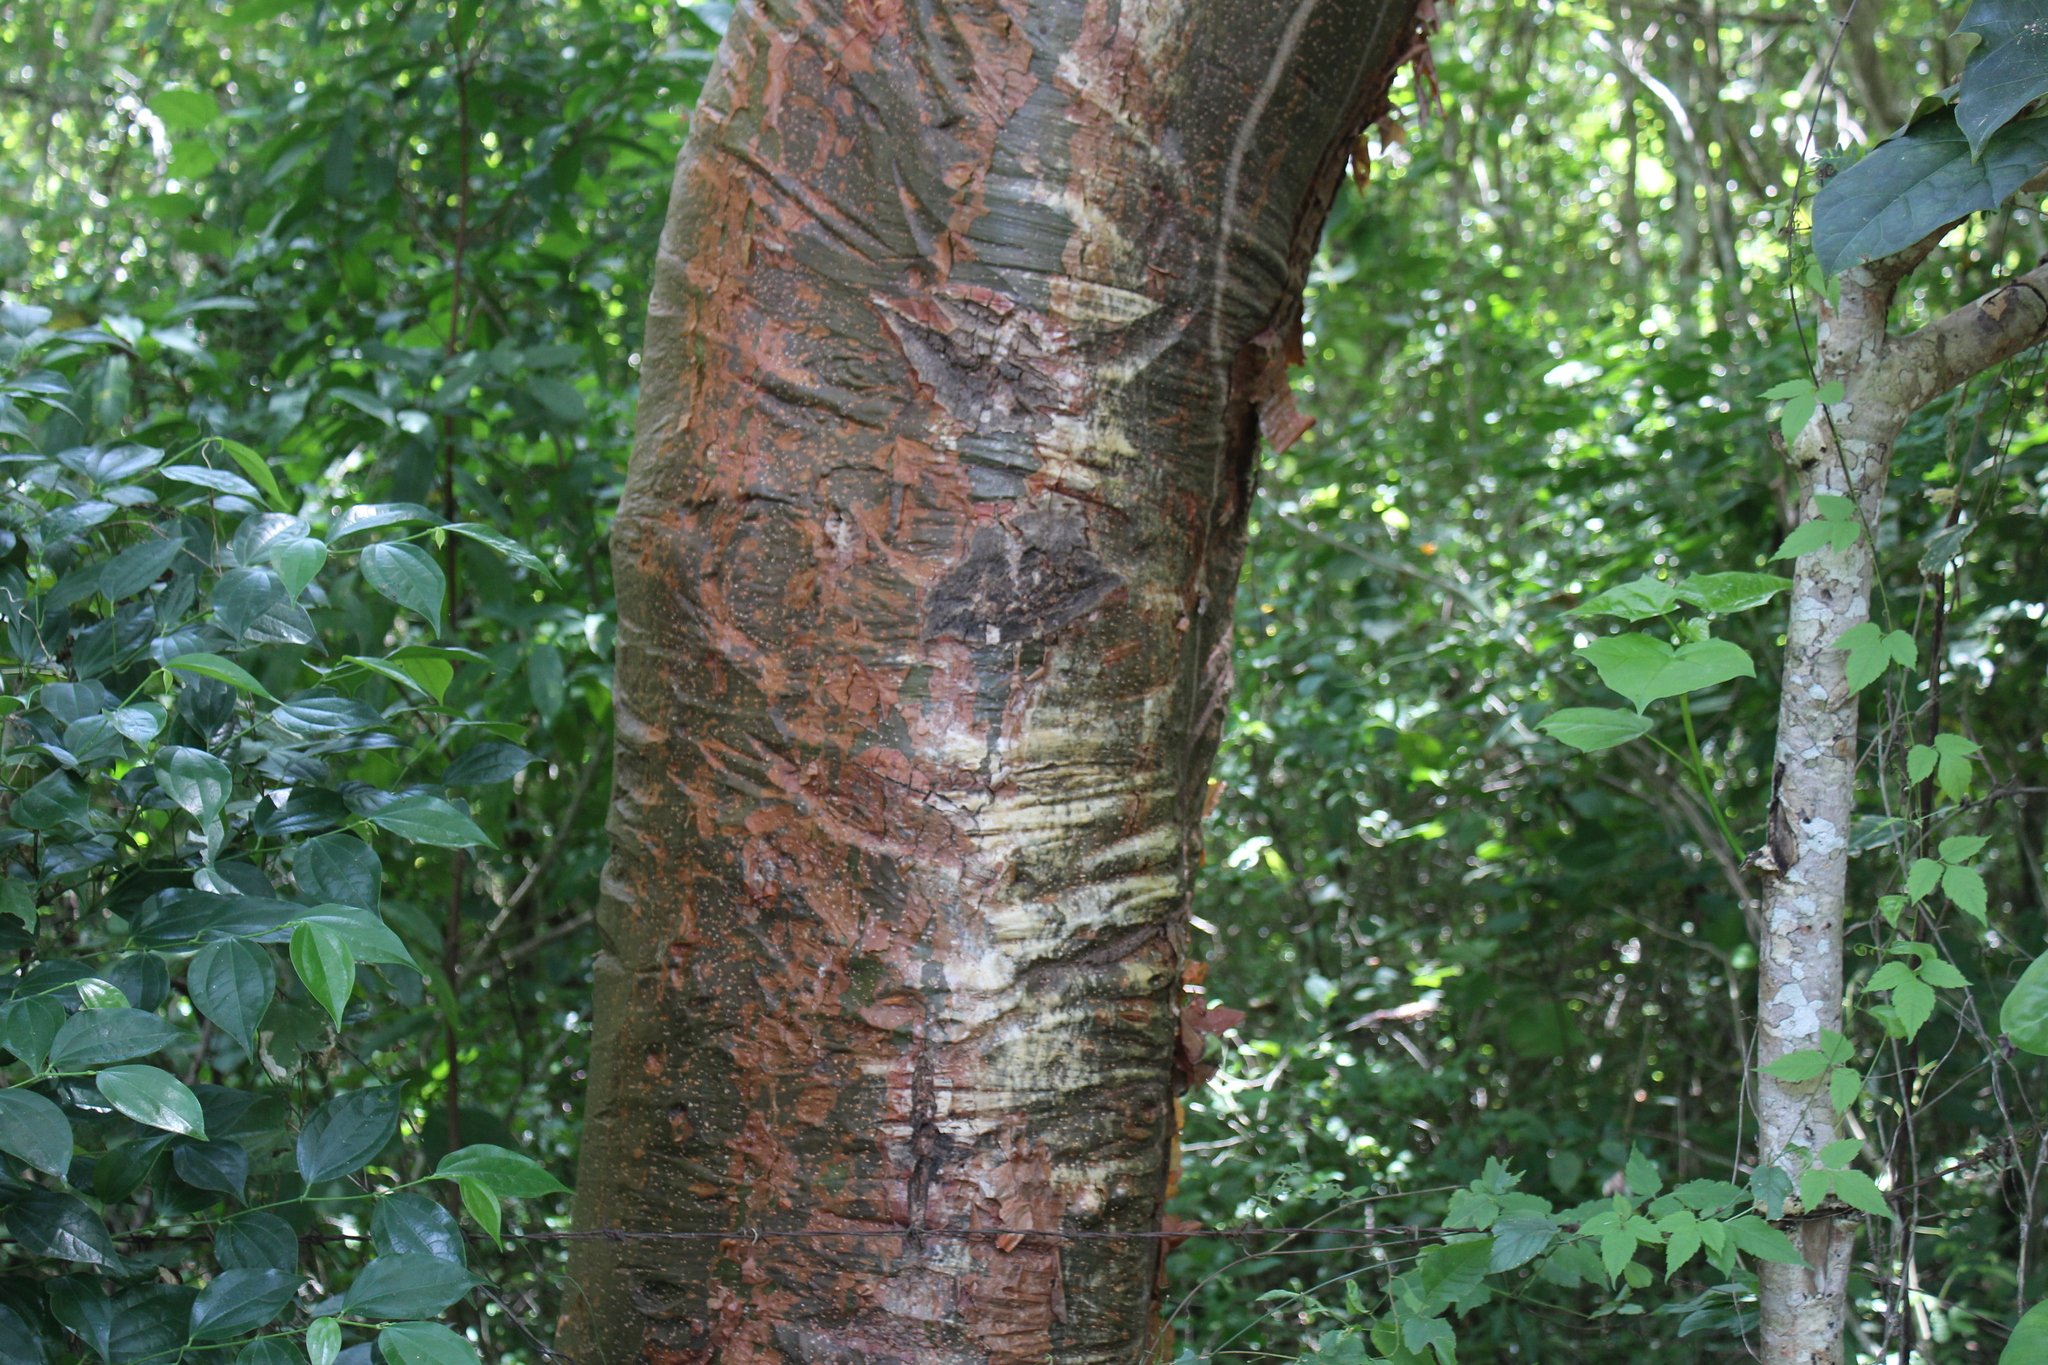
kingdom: Plantae
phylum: Tracheophyta
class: Magnoliopsida
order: Sapindales
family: Burseraceae
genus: Bursera
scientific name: Bursera simaruba
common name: Turpentine tree
